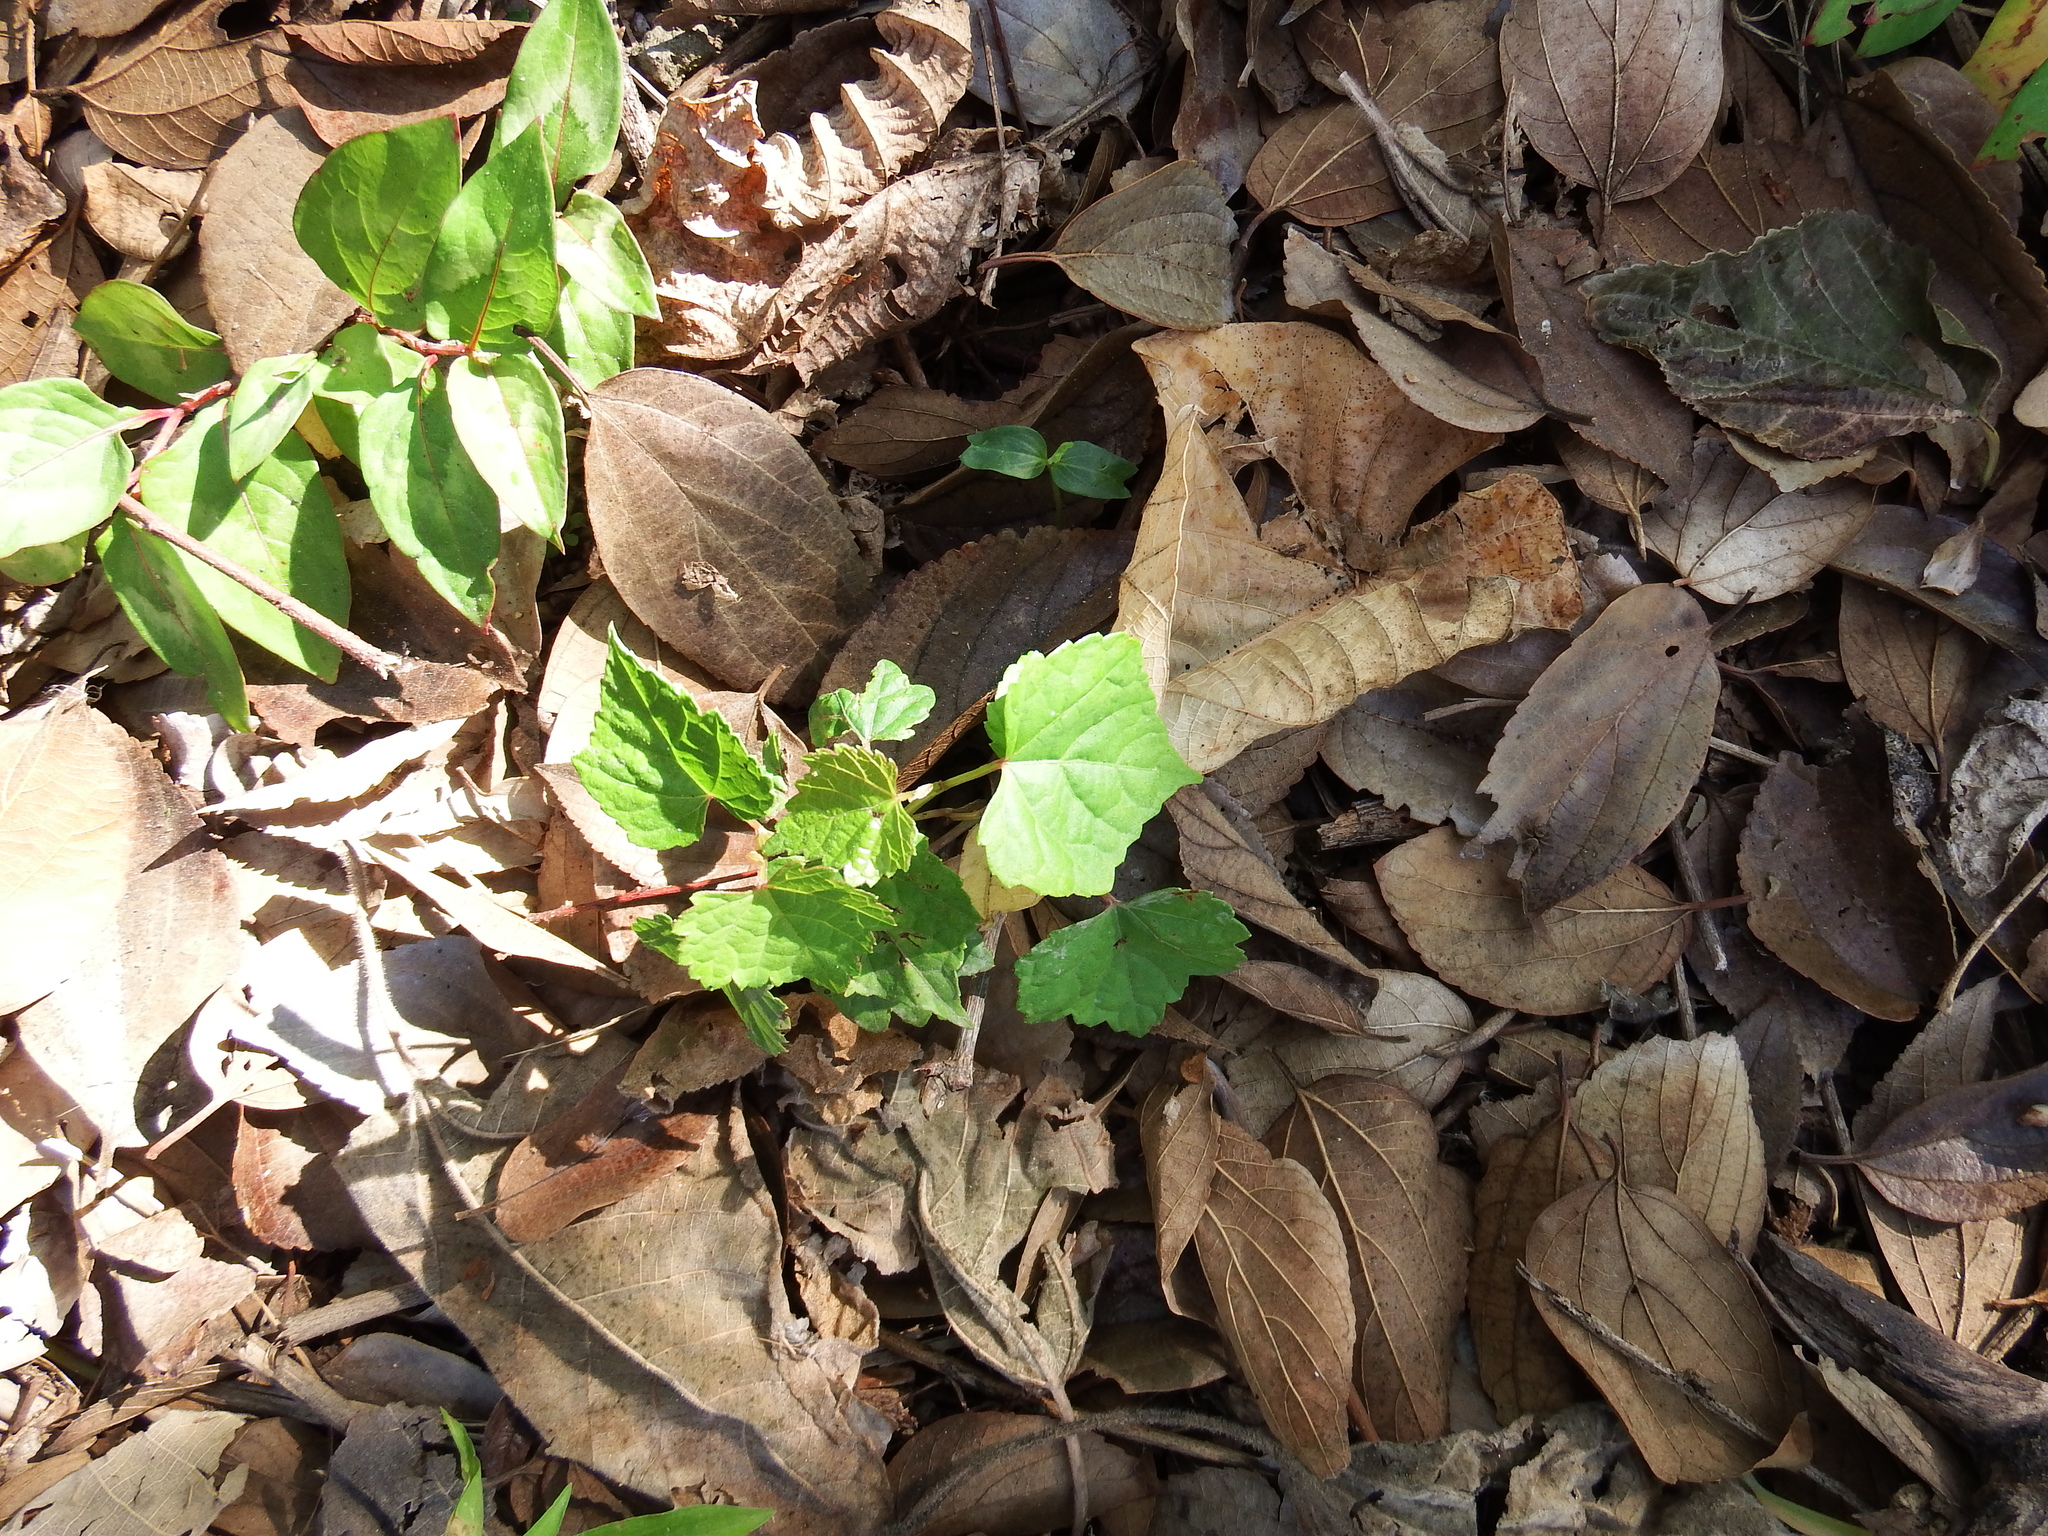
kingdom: Plantae
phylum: Tracheophyta
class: Magnoliopsida
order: Vitales
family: Vitaceae
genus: Ampelopsis
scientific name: Ampelopsis glandulosa
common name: Amur peppervine
